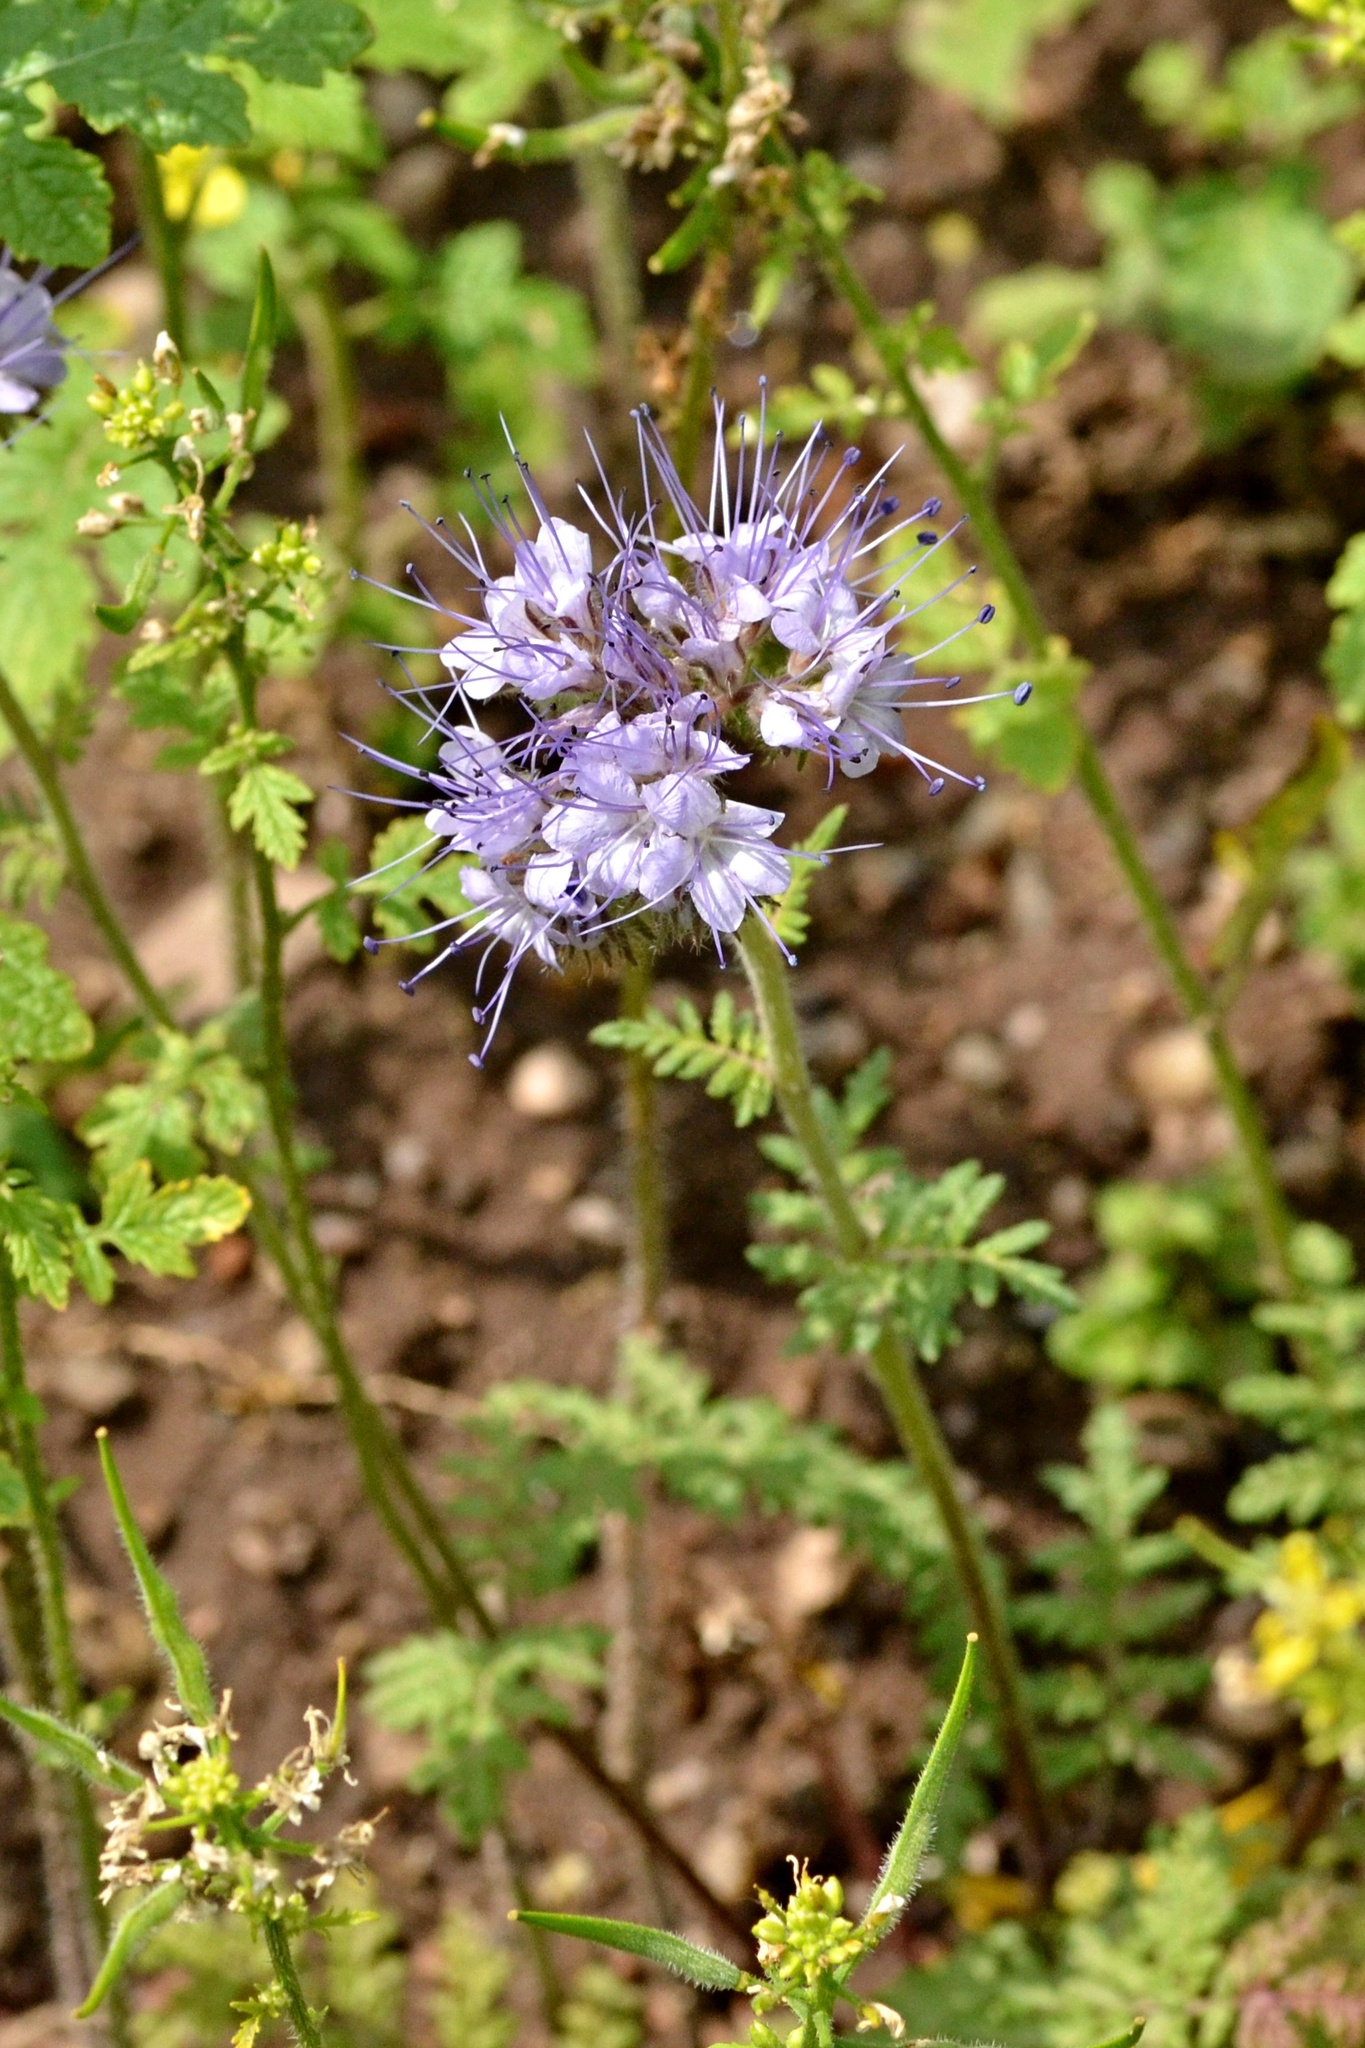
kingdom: Plantae
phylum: Tracheophyta
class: Magnoliopsida
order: Boraginales
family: Hydrophyllaceae
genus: Phacelia
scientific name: Phacelia tanacetifolia
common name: Phacelia
